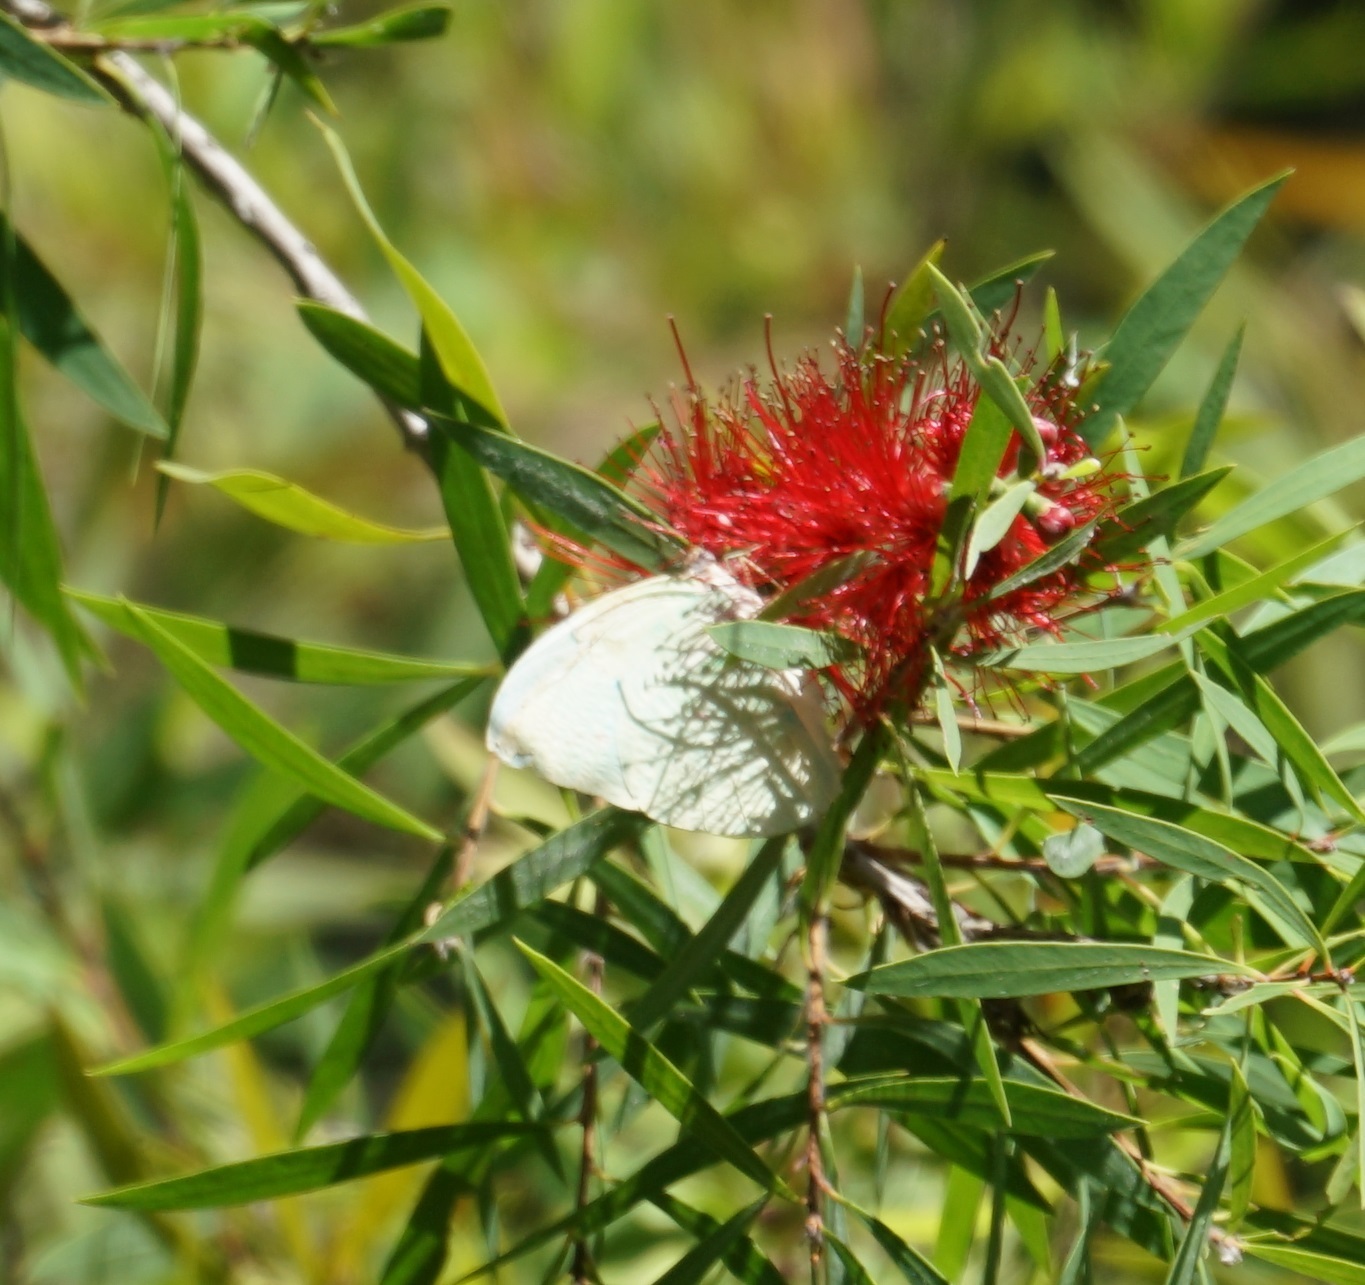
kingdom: Animalia
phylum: Arthropoda
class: Insecta
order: Lepidoptera
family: Pieridae
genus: Catopsilia
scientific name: Catopsilia pomona
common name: Common emigrant
